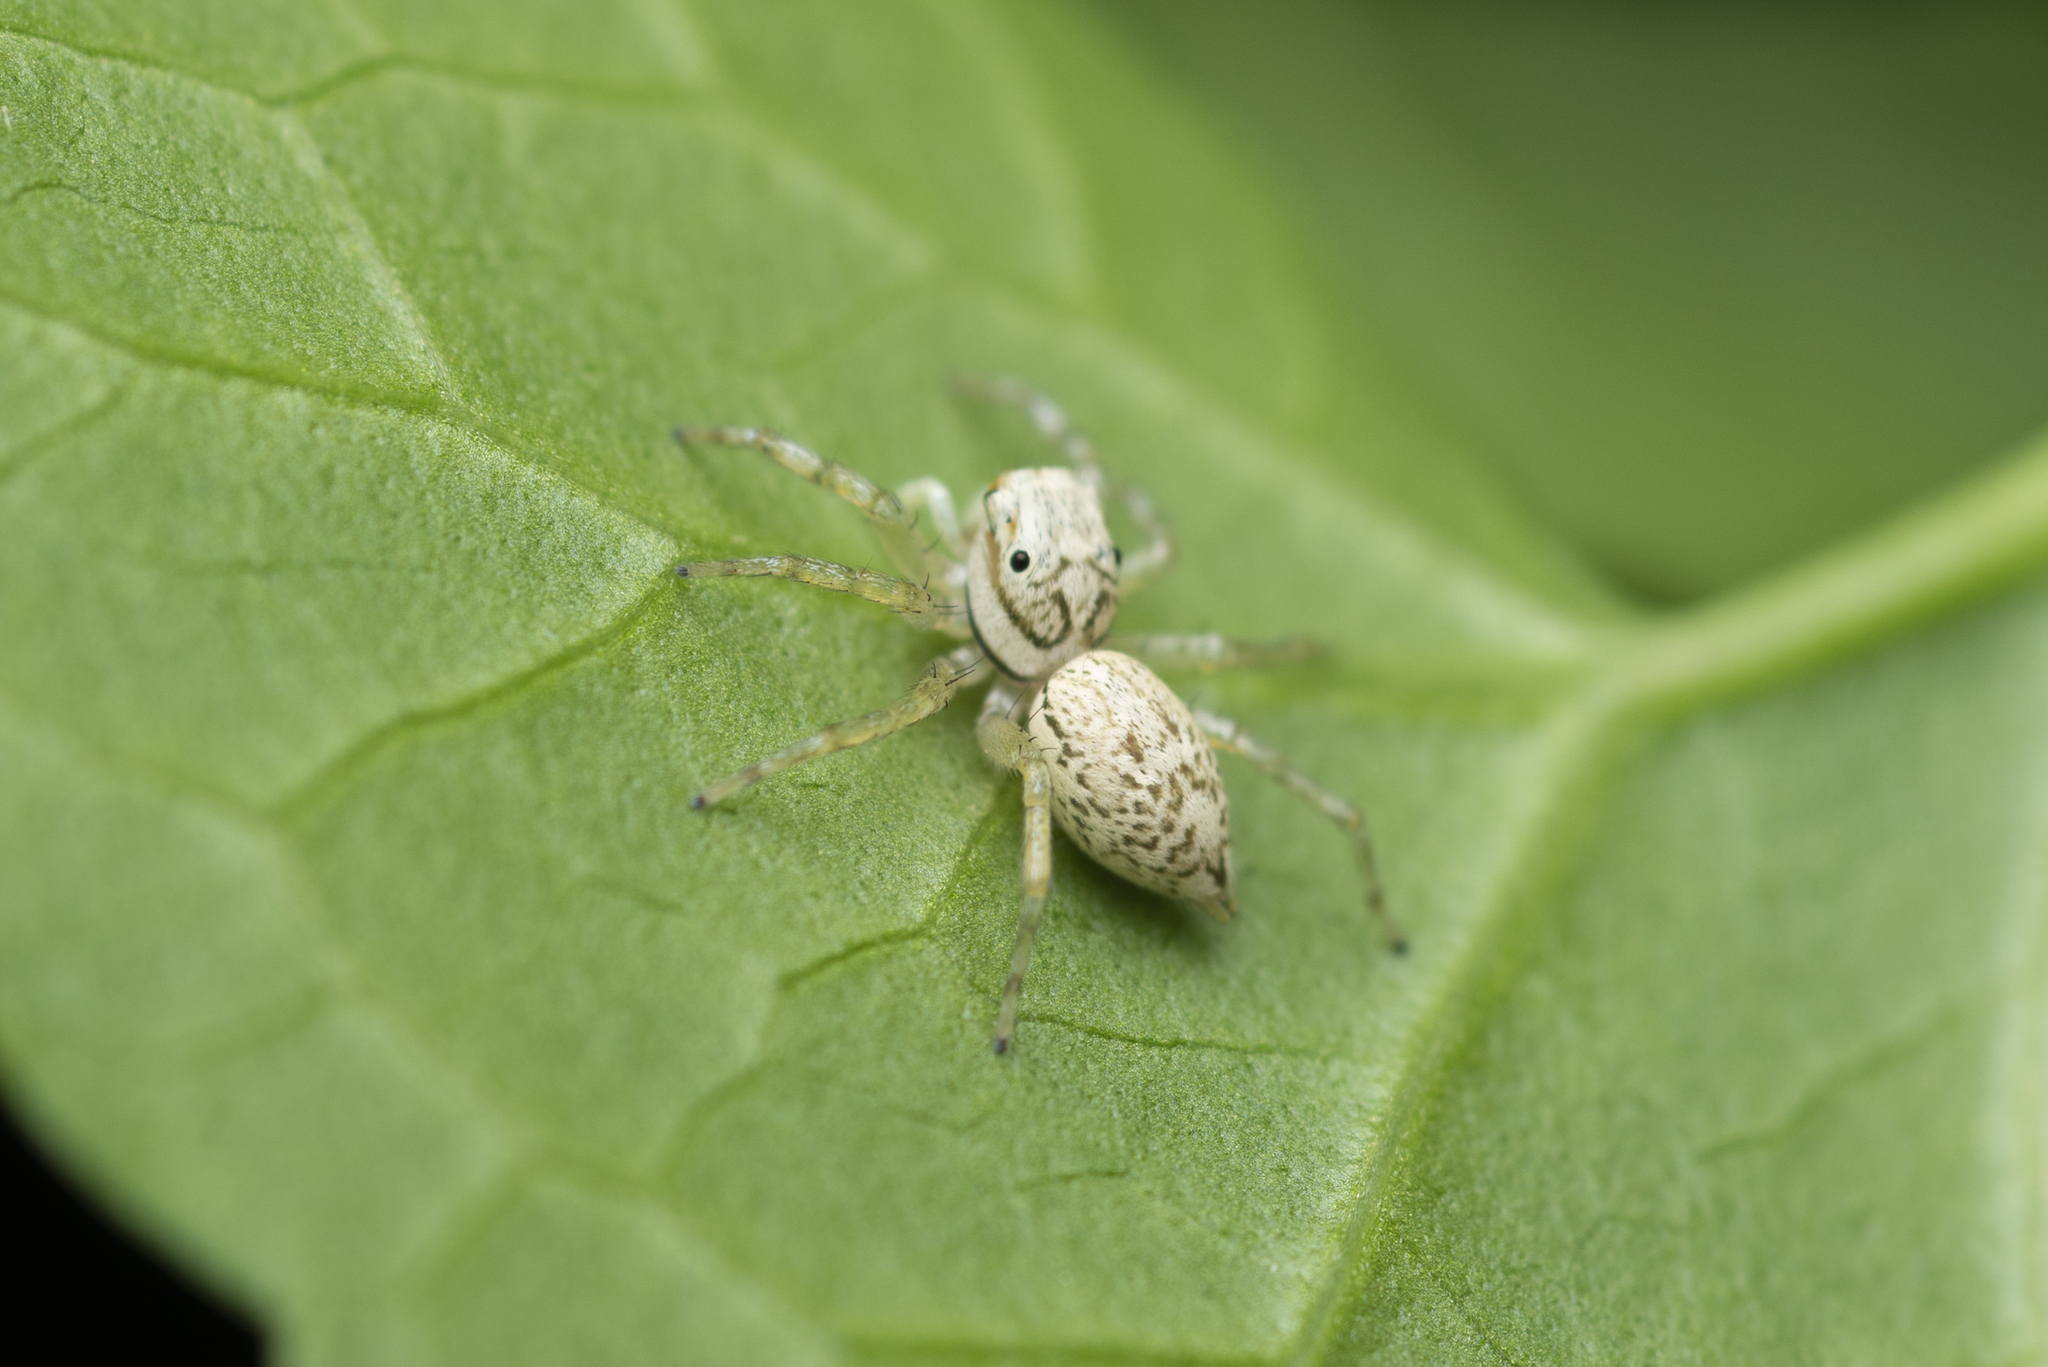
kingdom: Animalia
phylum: Arthropoda
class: Arachnida
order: Araneae
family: Salticidae
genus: Phintelloides
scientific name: Phintelloides versicolor
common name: Jumping spider
